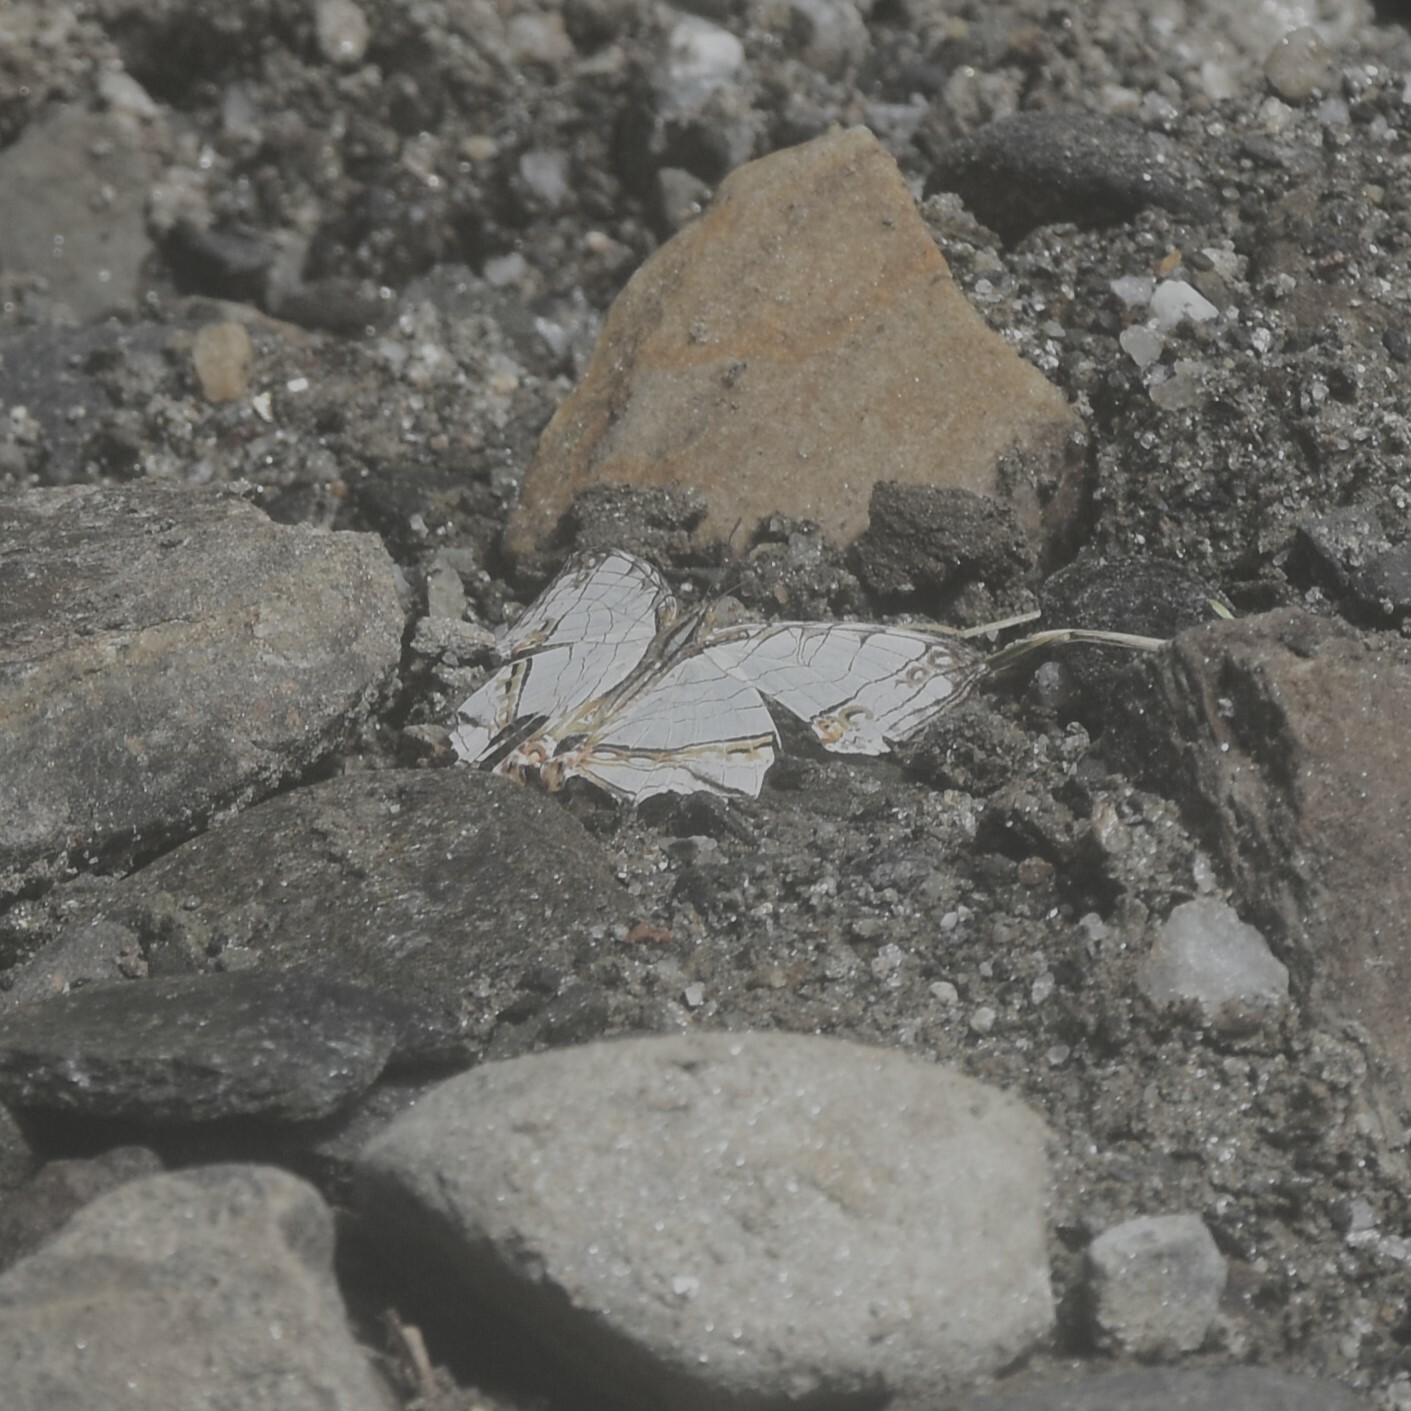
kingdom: Animalia
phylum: Arthropoda
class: Insecta
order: Lepidoptera
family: Nymphalidae
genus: Cyrestis
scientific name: Cyrestis thyodamas
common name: Common mapwing
